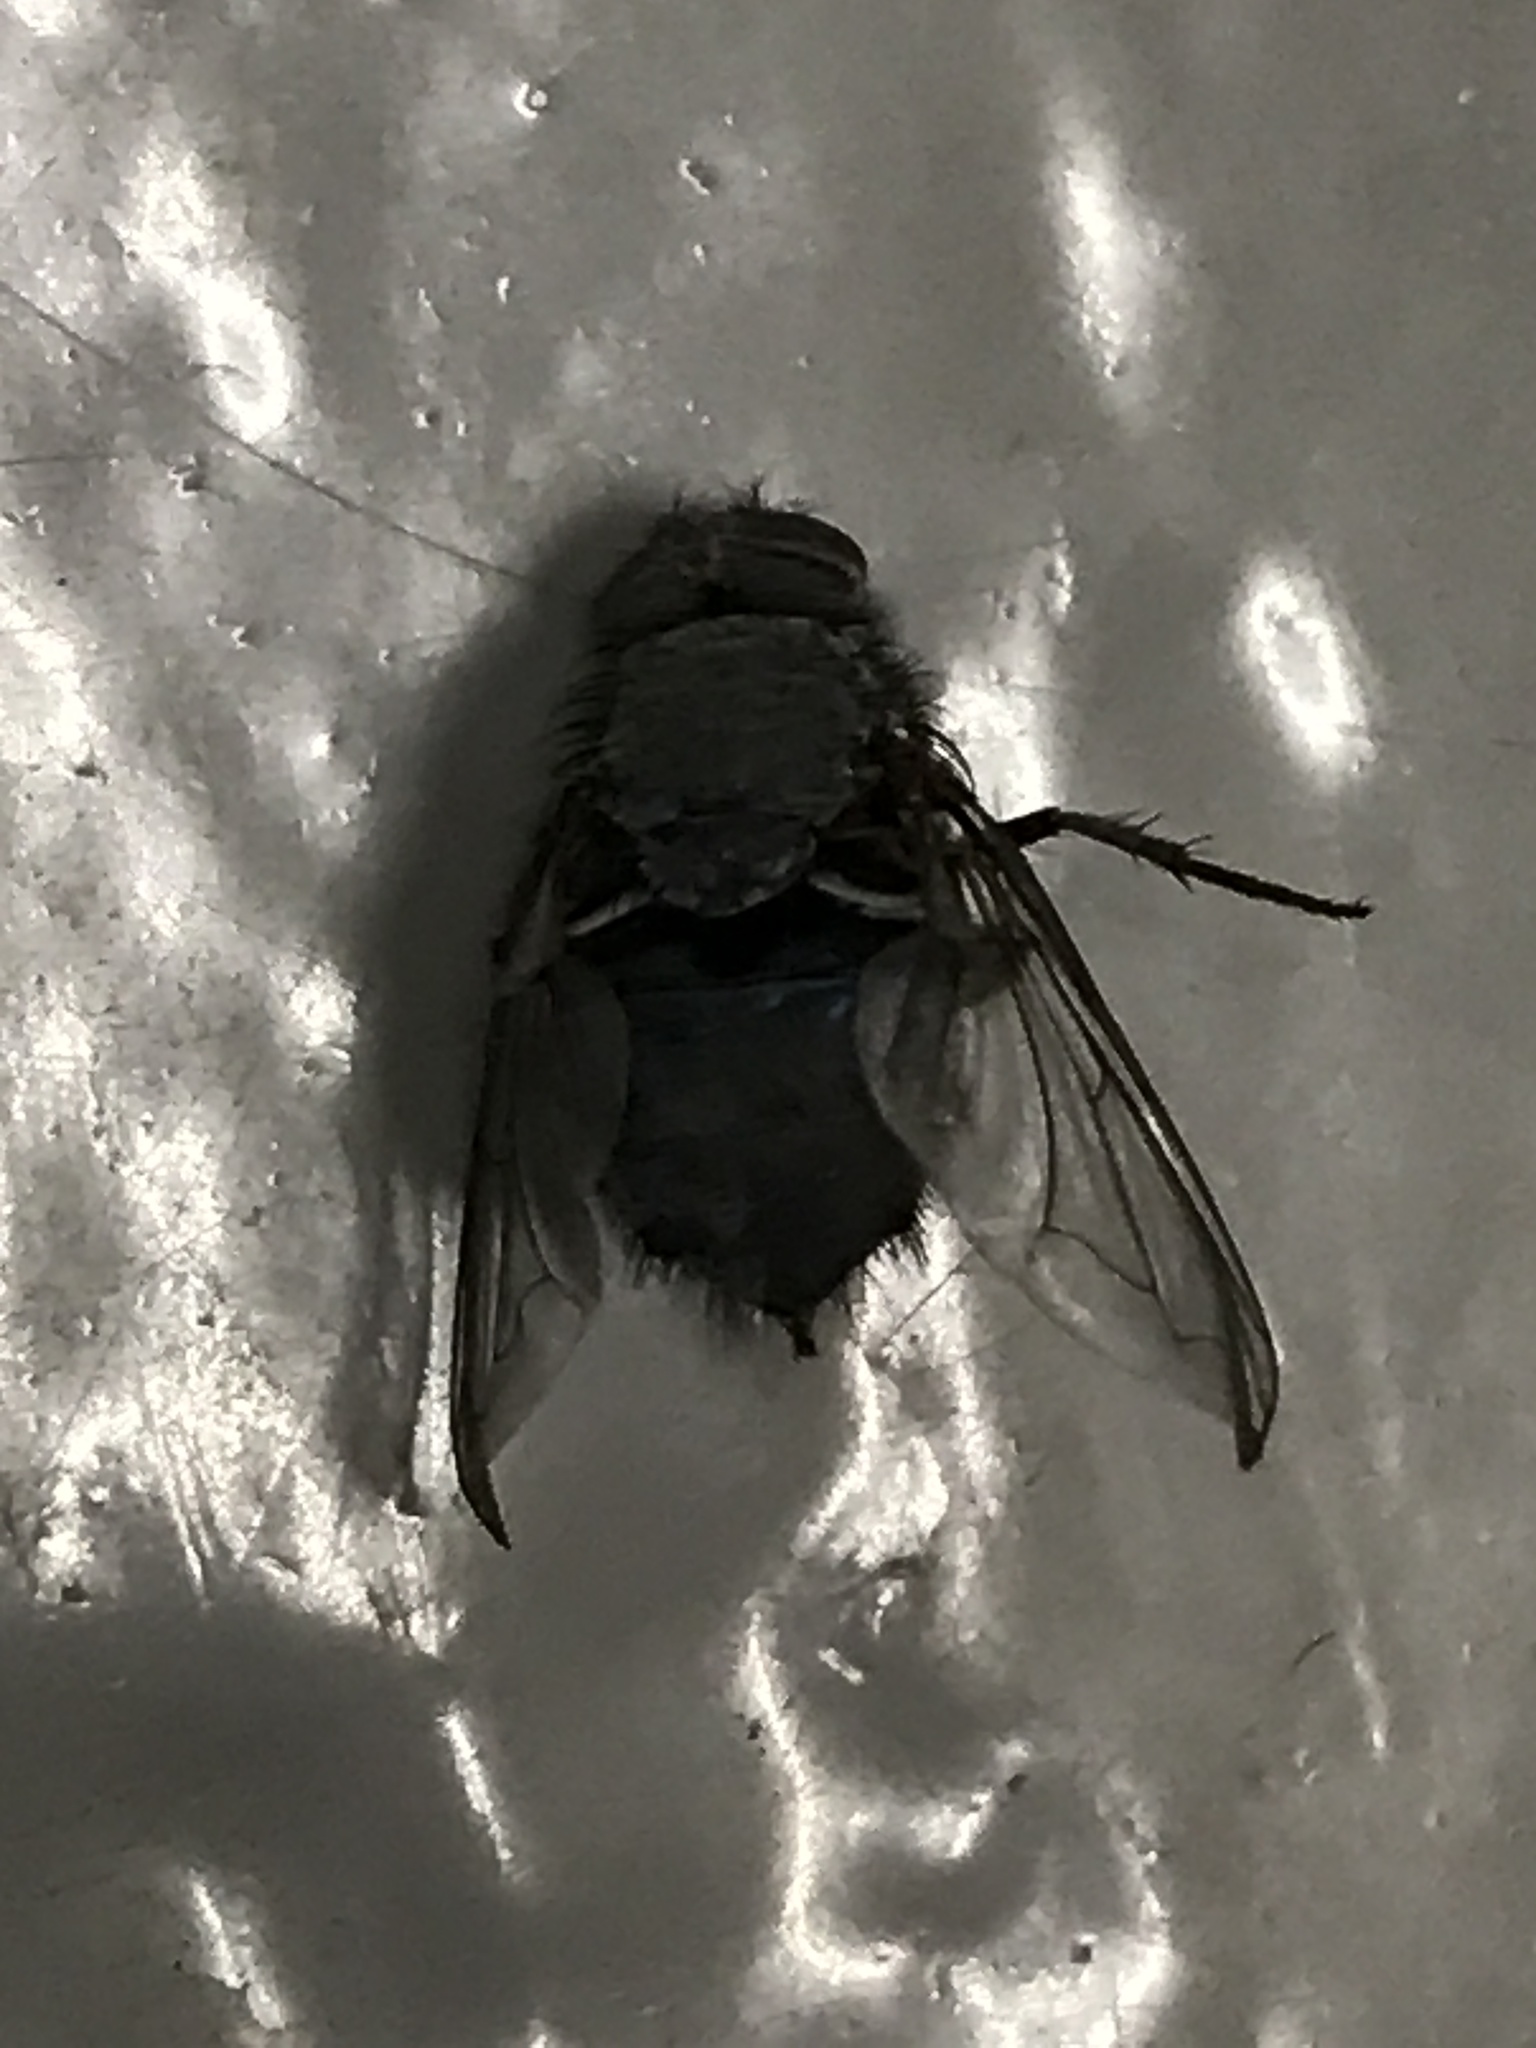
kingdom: Animalia
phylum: Arthropoda
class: Insecta
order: Diptera
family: Calliphoridae
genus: Calliphora
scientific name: Calliphora
